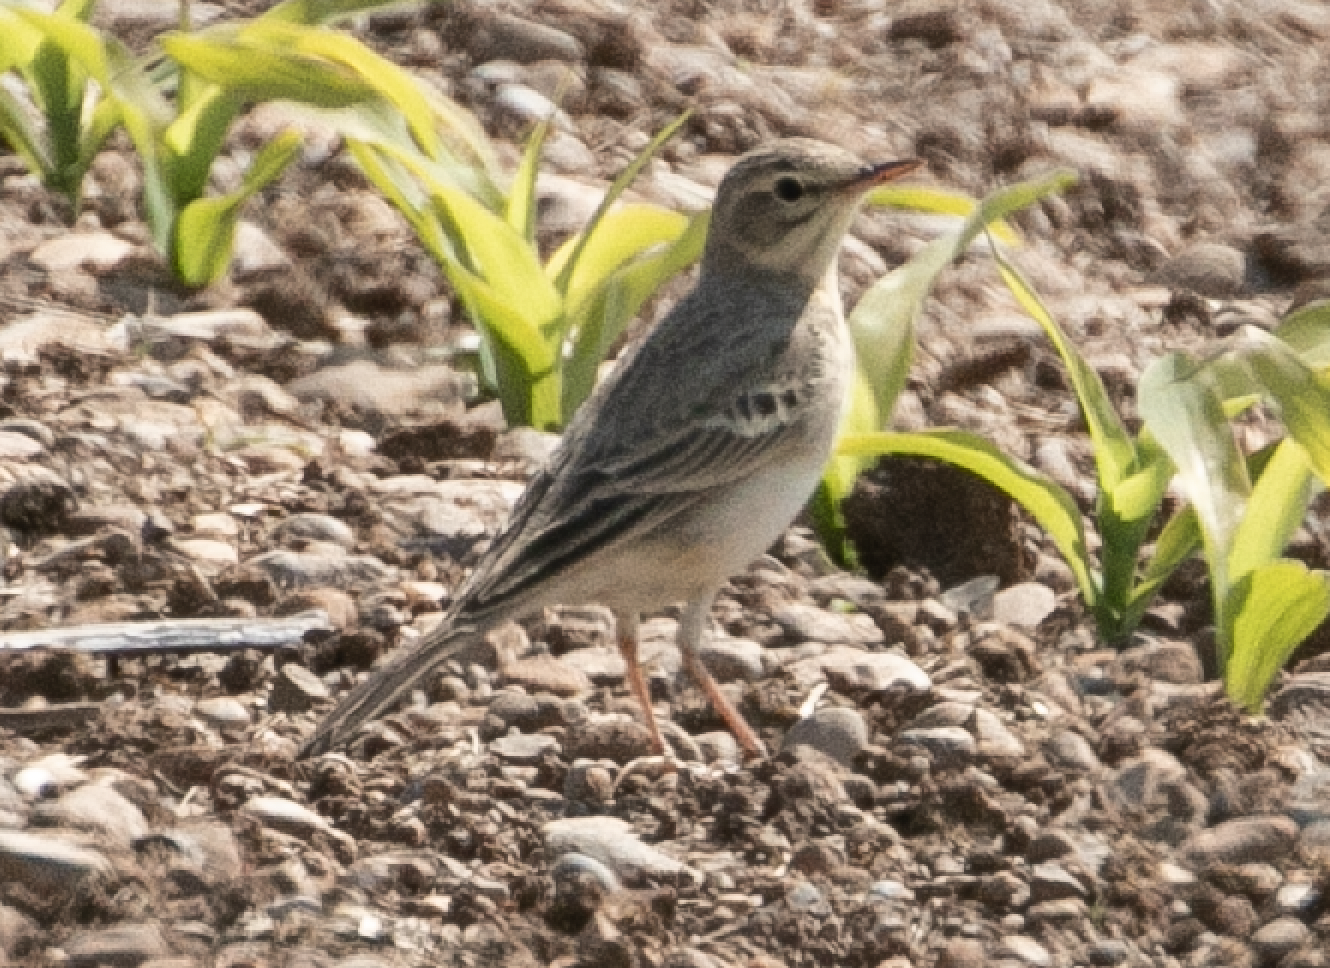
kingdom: Animalia
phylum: Chordata
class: Aves
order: Passeriformes
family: Motacillidae
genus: Anthus
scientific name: Anthus campestris
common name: Tawny pipit
